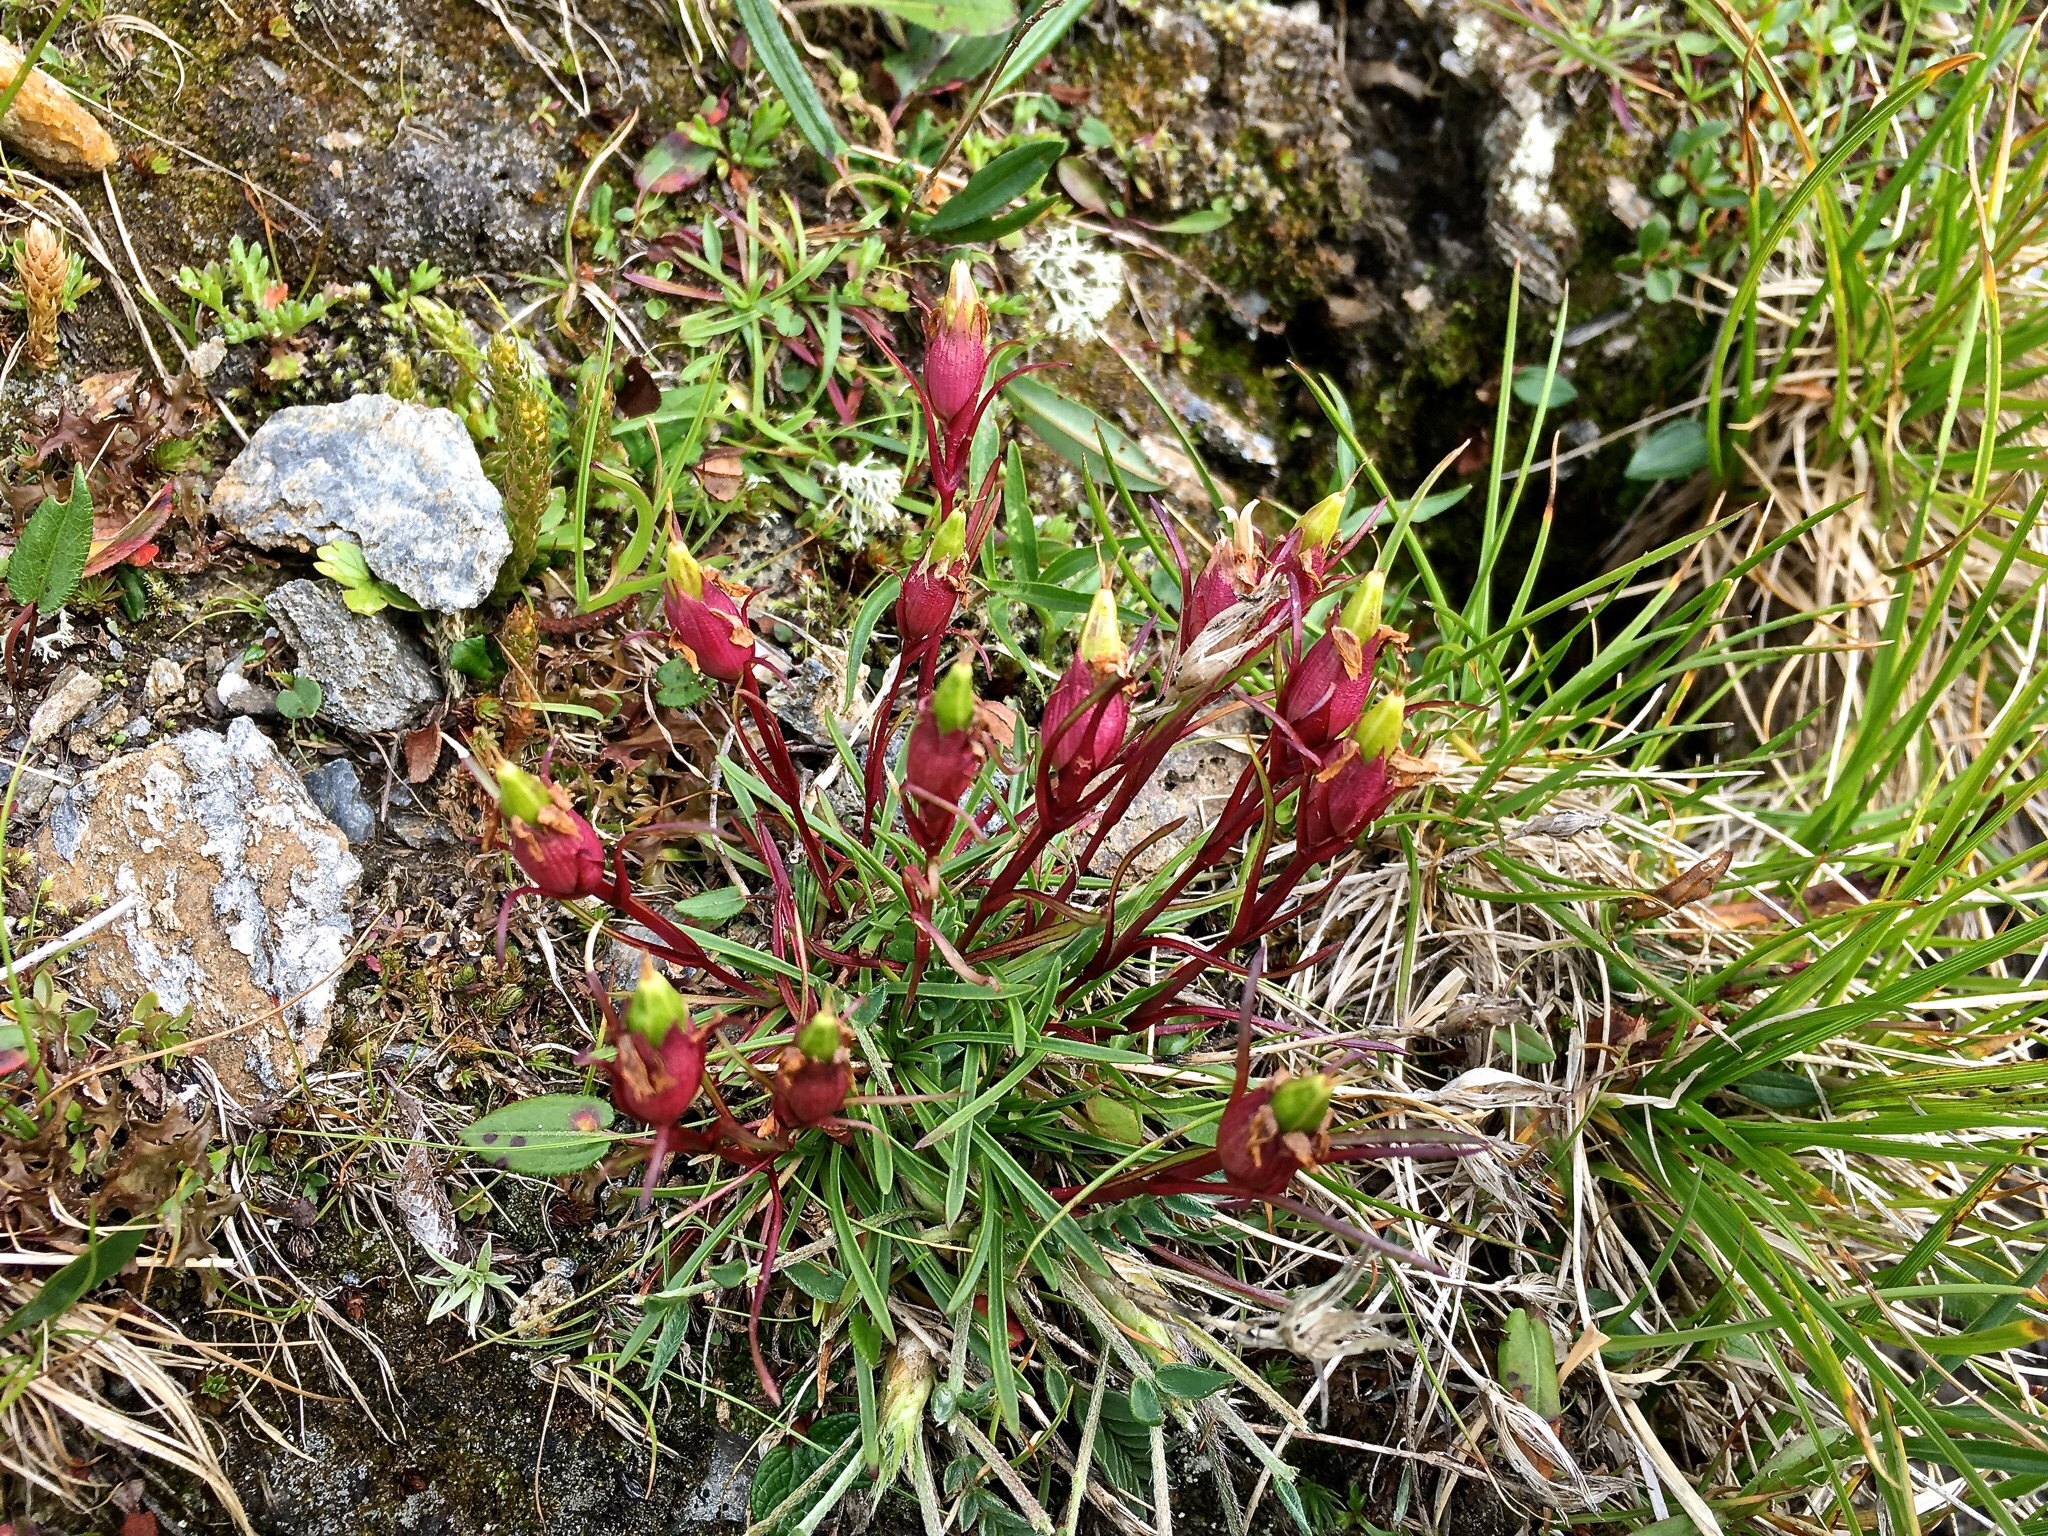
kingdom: Plantae
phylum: Tracheophyta
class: Magnoliopsida
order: Caryophyllales
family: Caryophyllaceae
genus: Dianthus
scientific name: Dianthus glacialis
